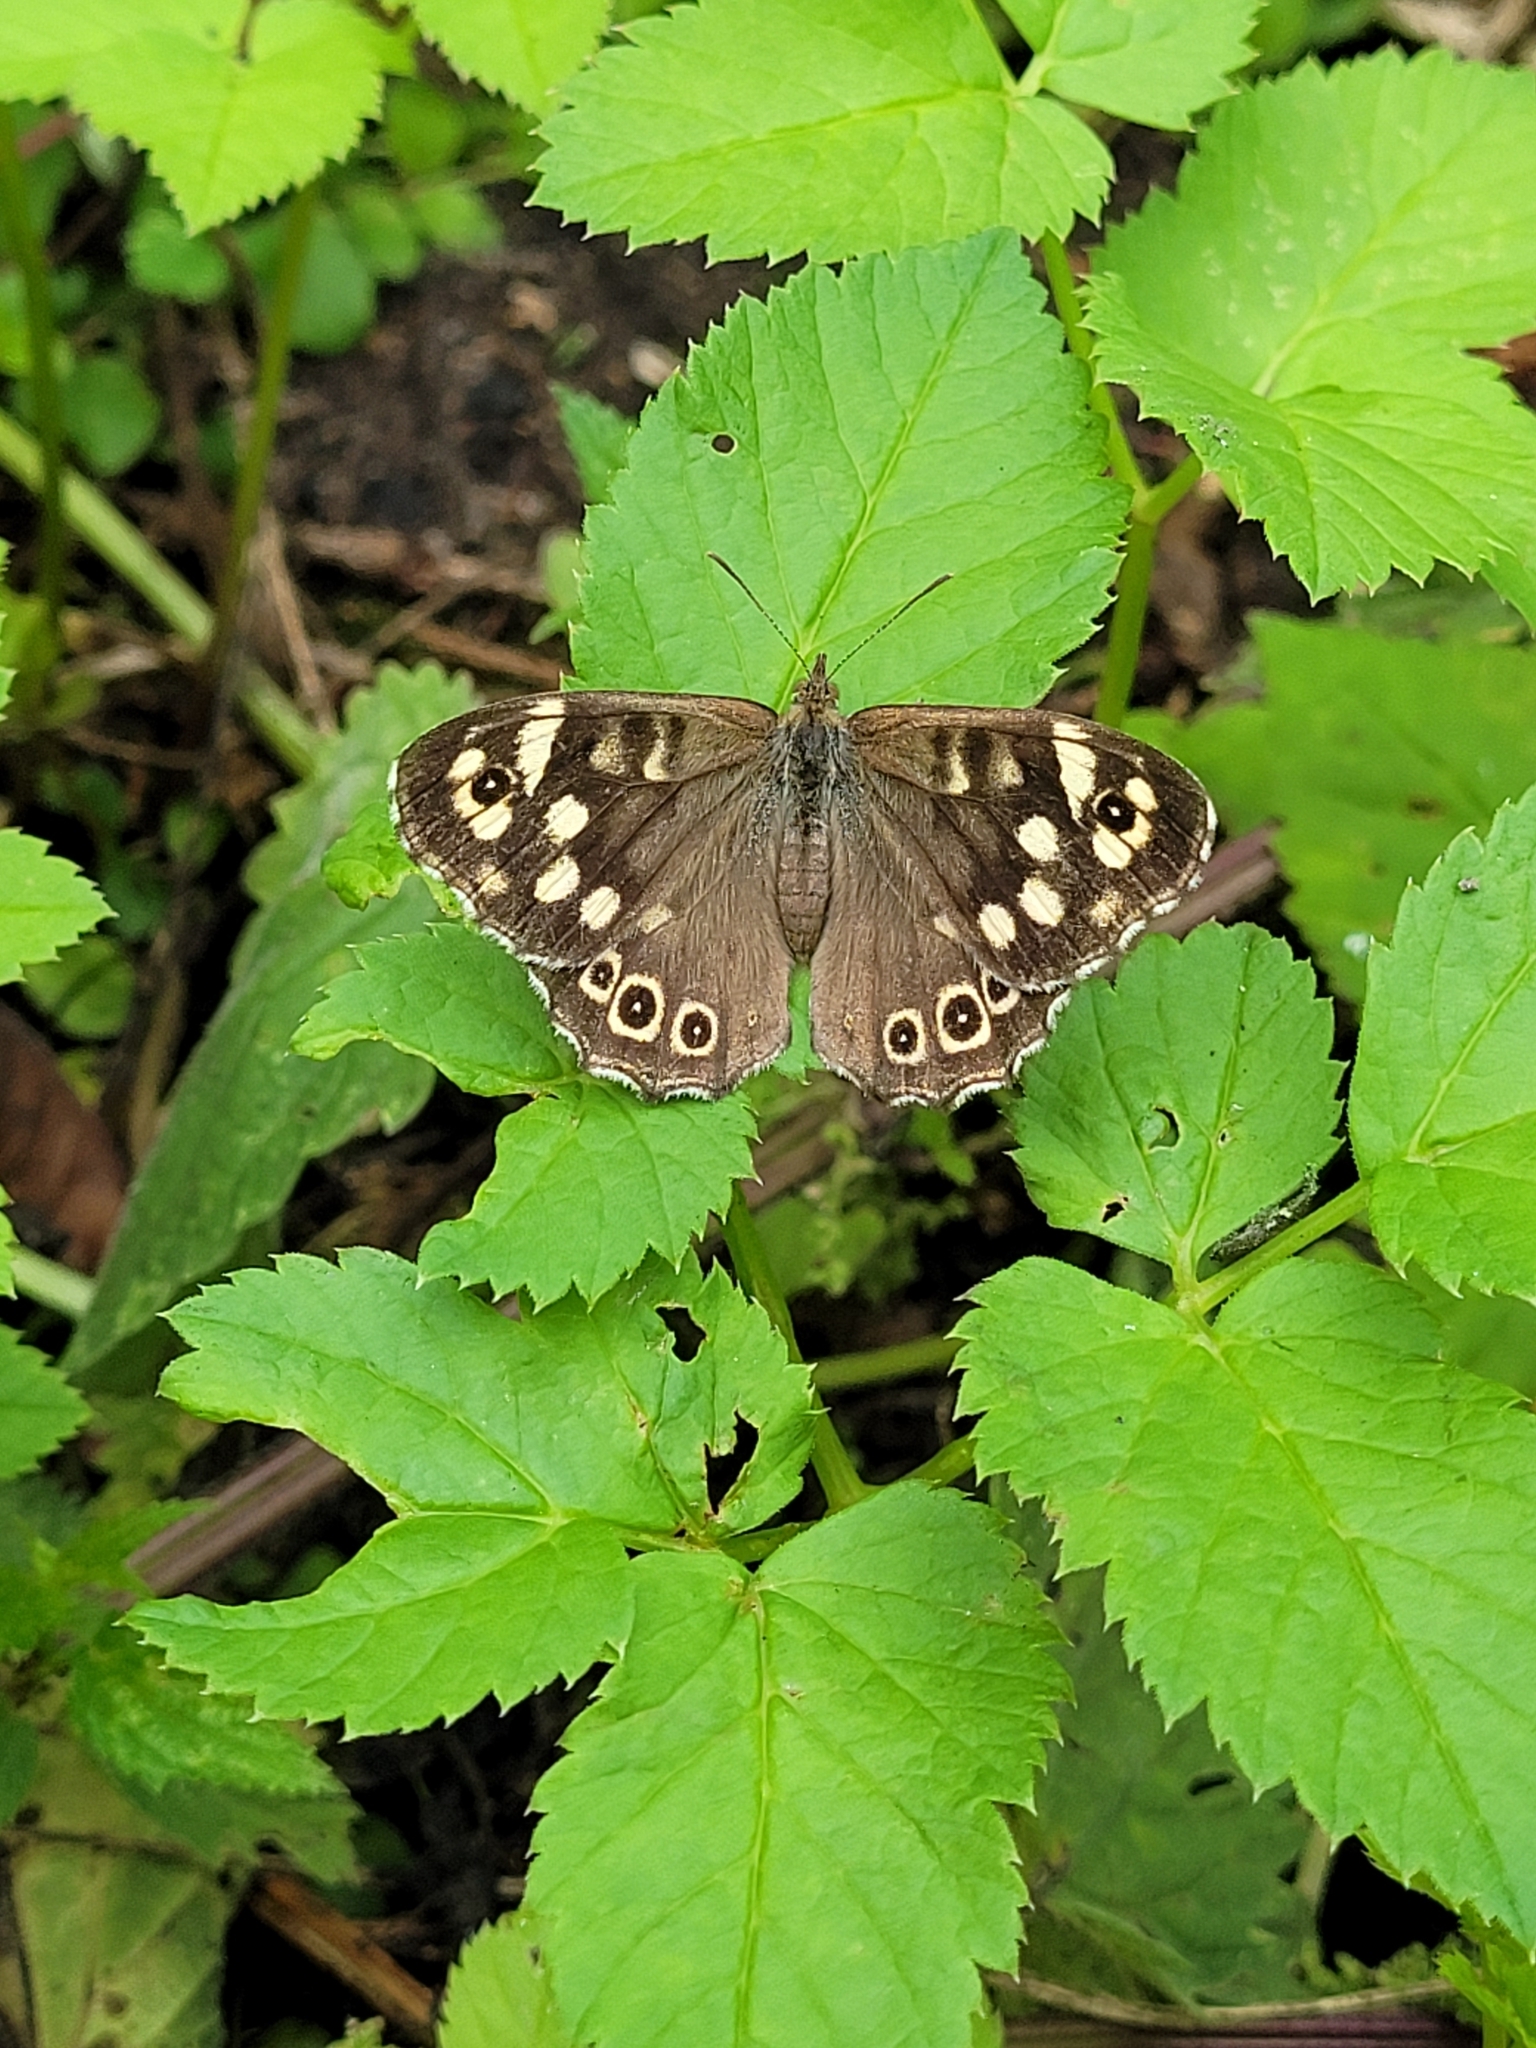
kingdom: Animalia
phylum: Arthropoda
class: Insecta
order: Lepidoptera
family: Nymphalidae
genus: Pararge
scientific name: Pararge aegeria
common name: Speckled wood
